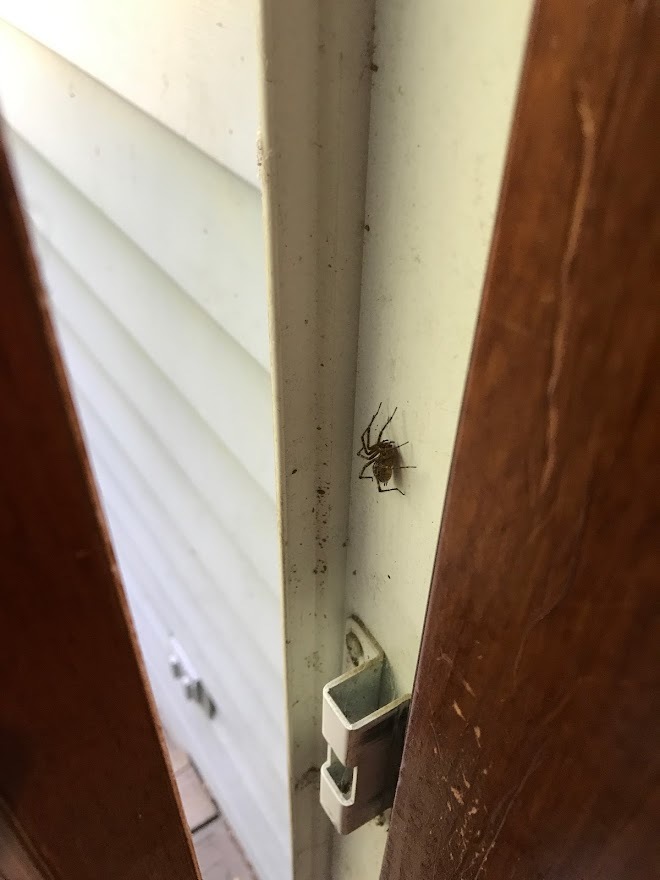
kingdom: Animalia
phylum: Arthropoda
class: Arachnida
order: Araneae
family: Agelenidae
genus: Agelenopsis
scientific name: Agelenopsis
